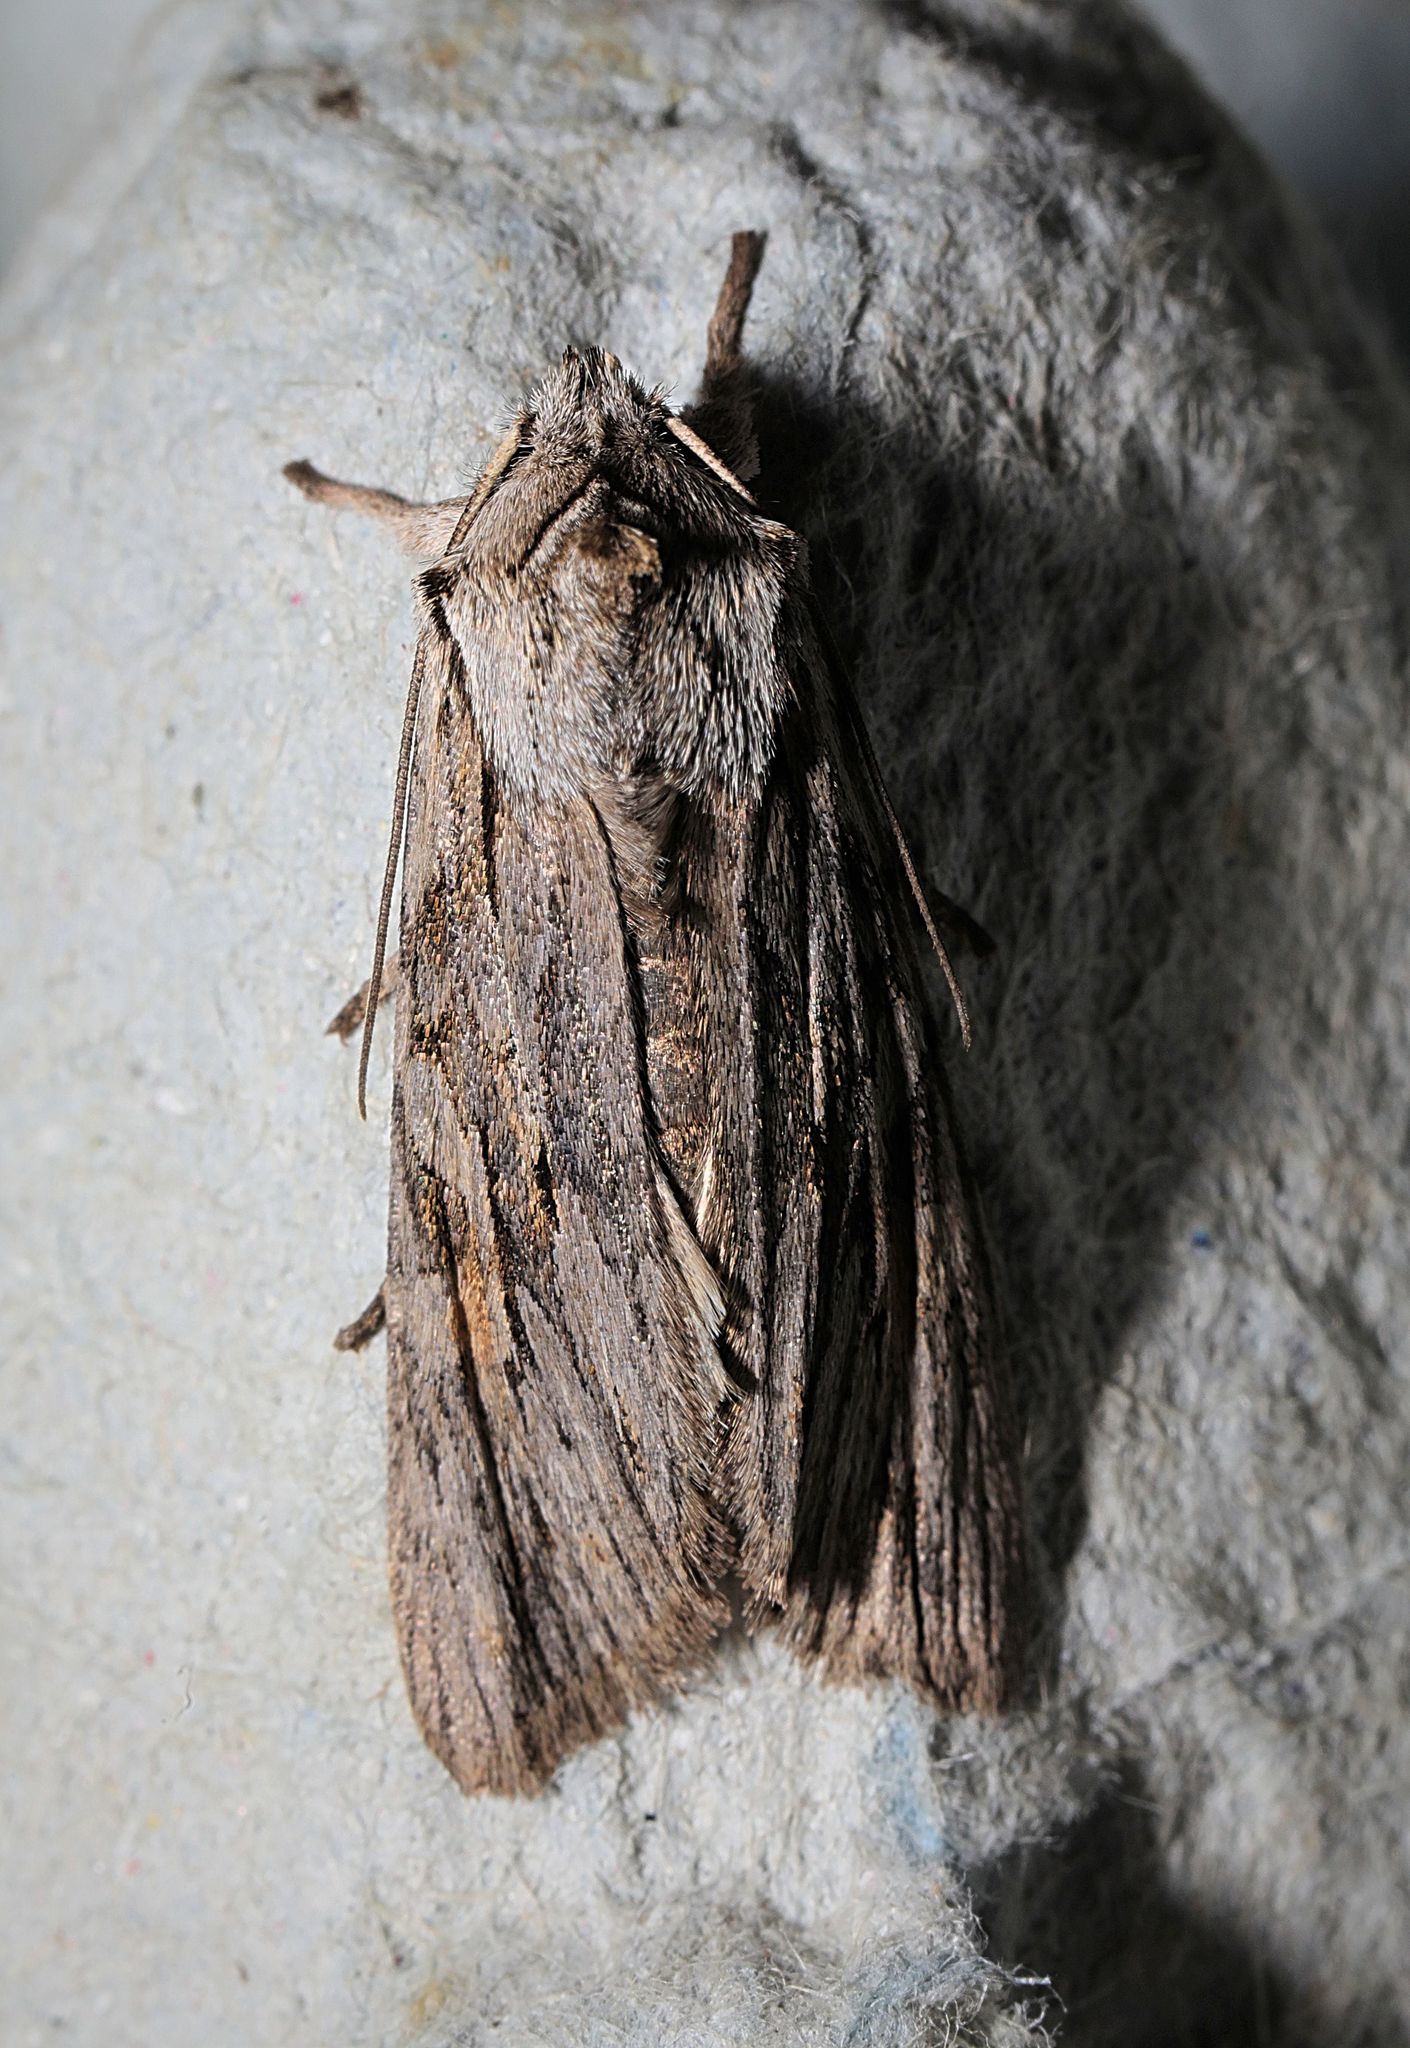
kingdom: Animalia
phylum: Arthropoda
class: Insecta
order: Lepidoptera
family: Noctuidae
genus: Lithophane
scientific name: Lithophane leautieri
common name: Blair's shoulder-knot
